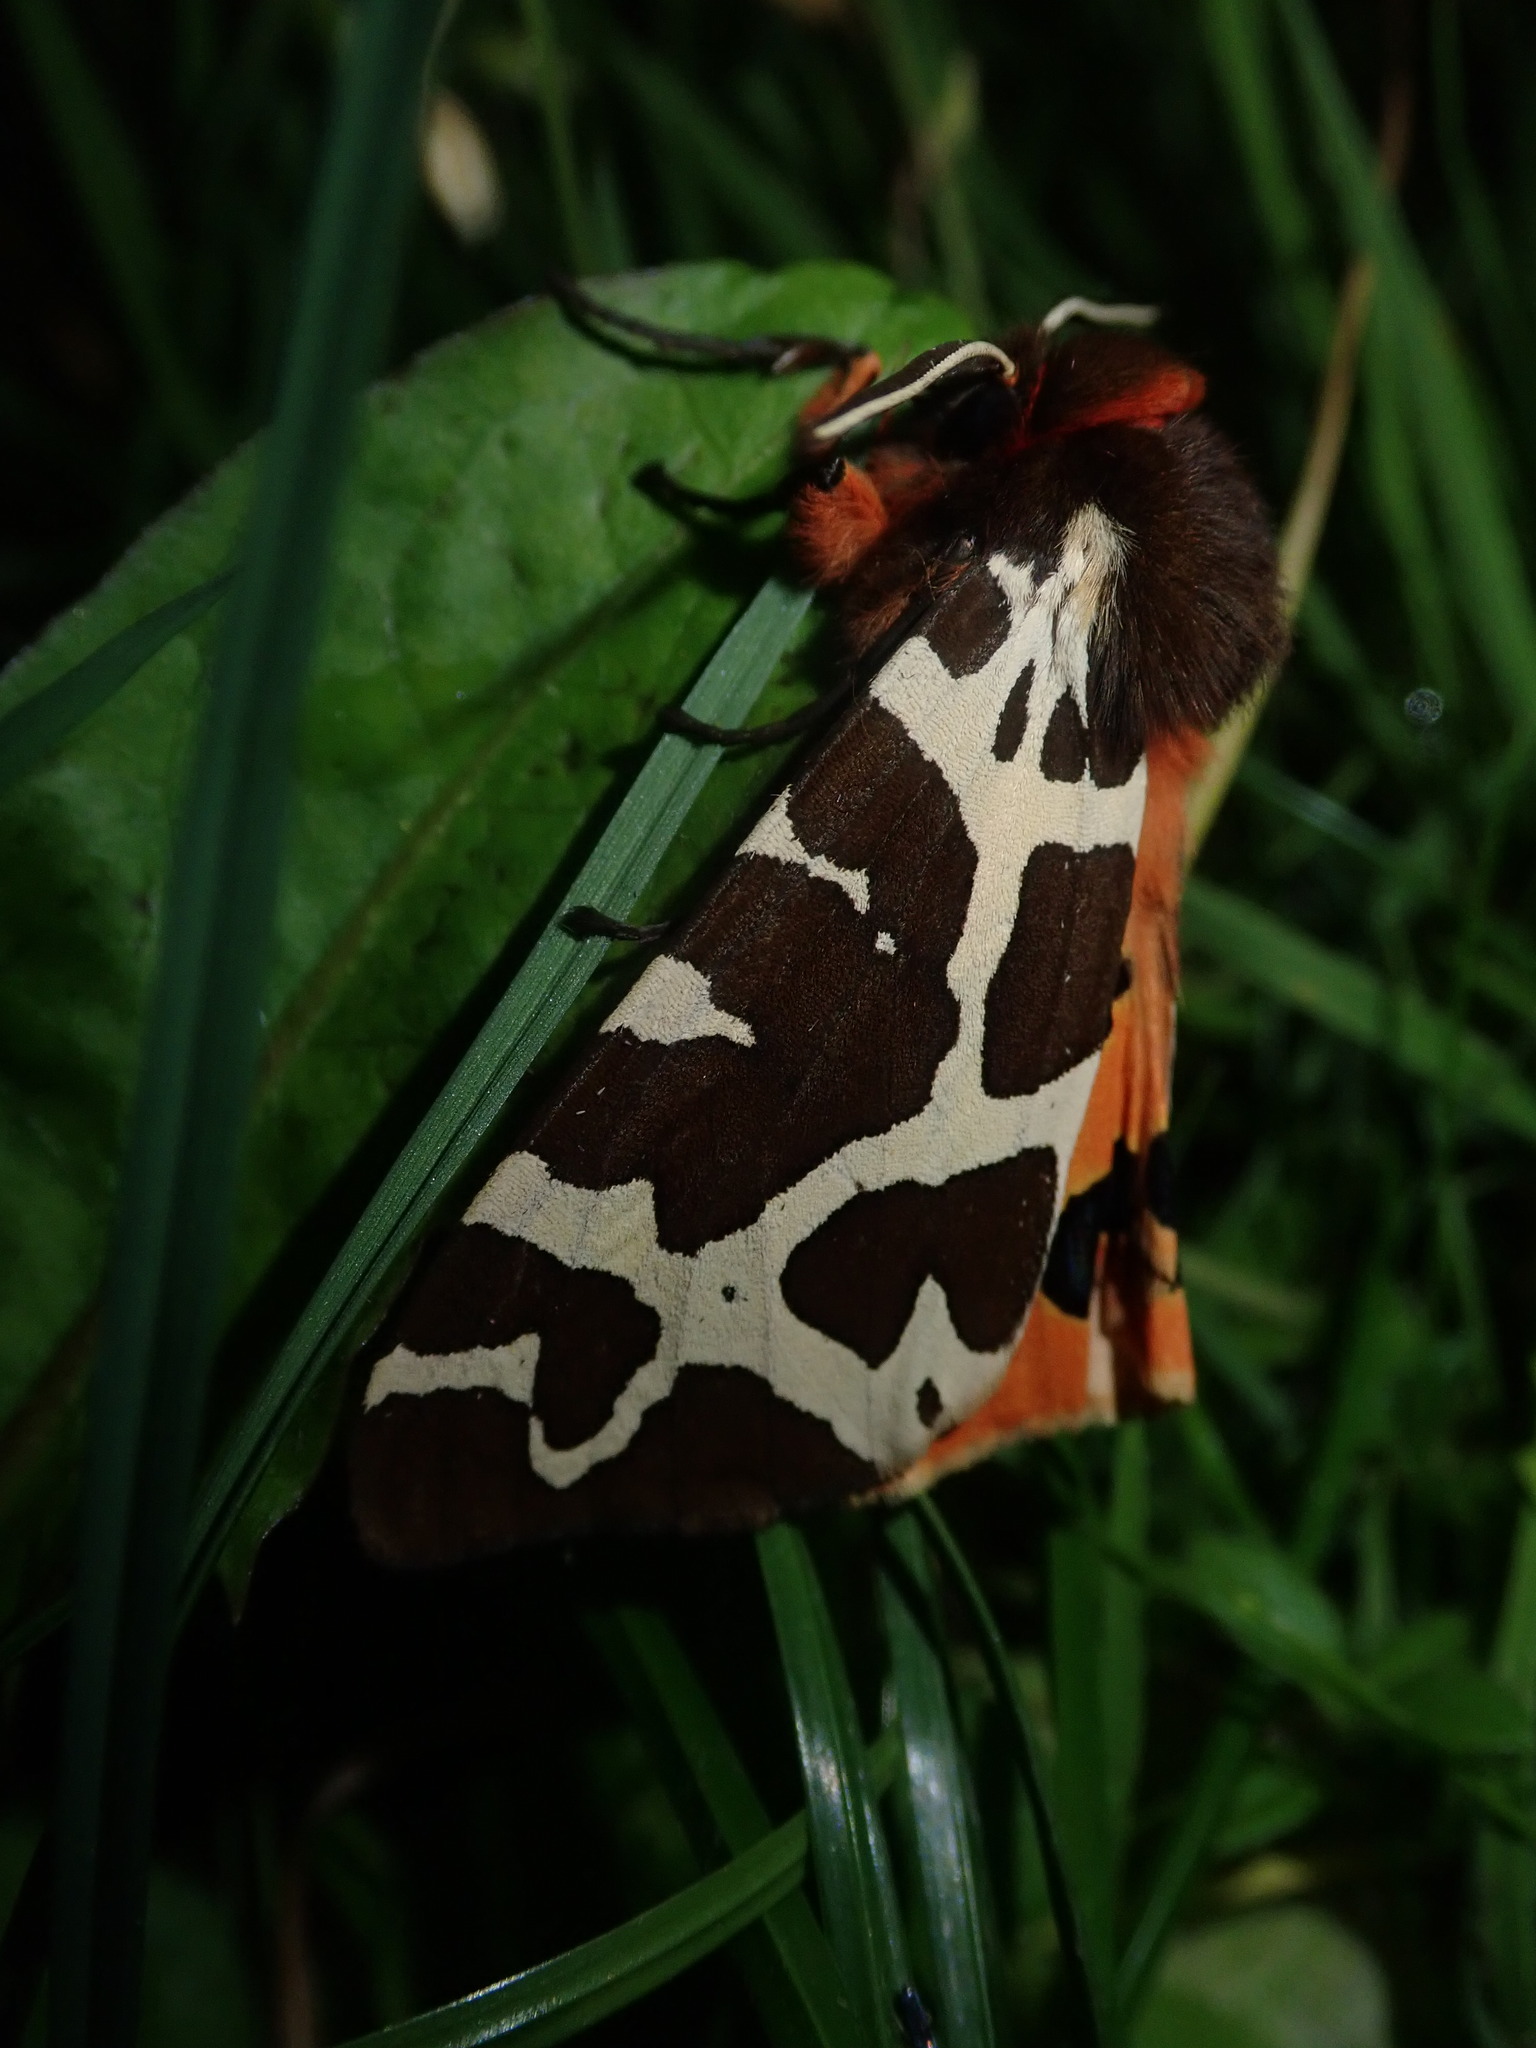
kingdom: Animalia
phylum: Arthropoda
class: Insecta
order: Lepidoptera
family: Erebidae
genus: Arctia
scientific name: Arctia caja
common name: Garden tiger
